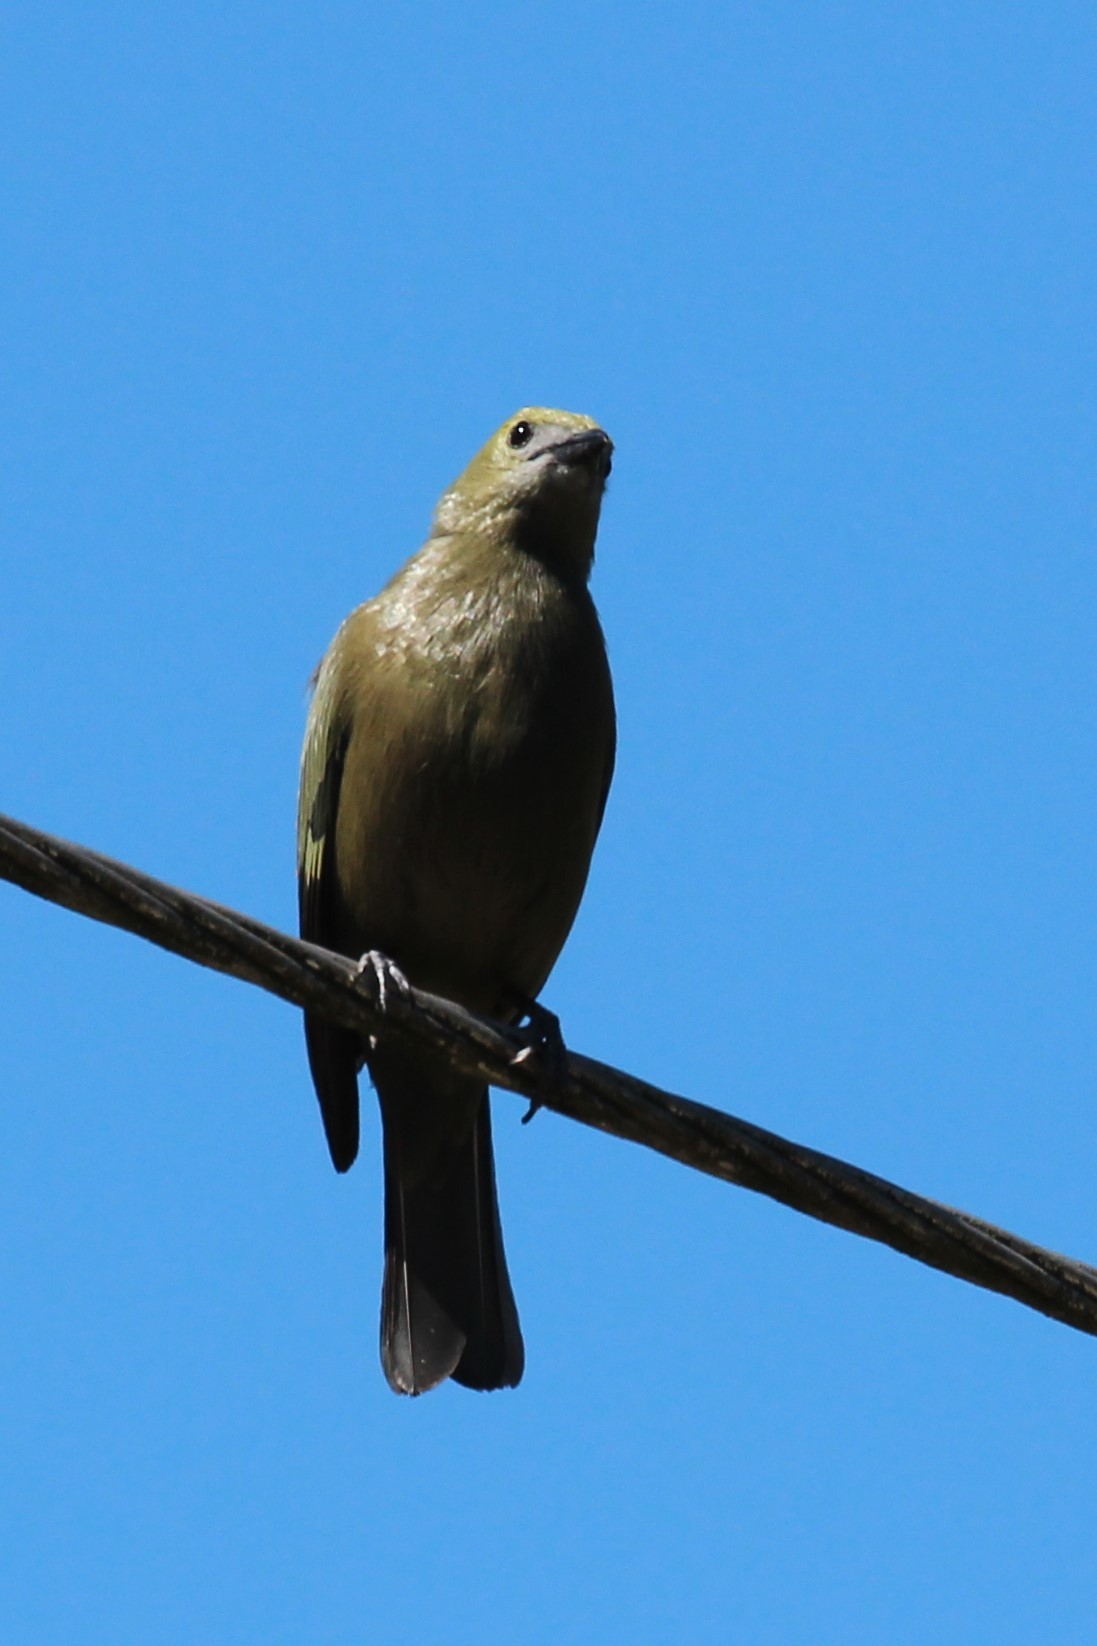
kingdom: Animalia
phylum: Chordata
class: Aves
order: Passeriformes
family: Thraupidae
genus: Thraupis
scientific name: Thraupis palmarum
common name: Palm tanager
